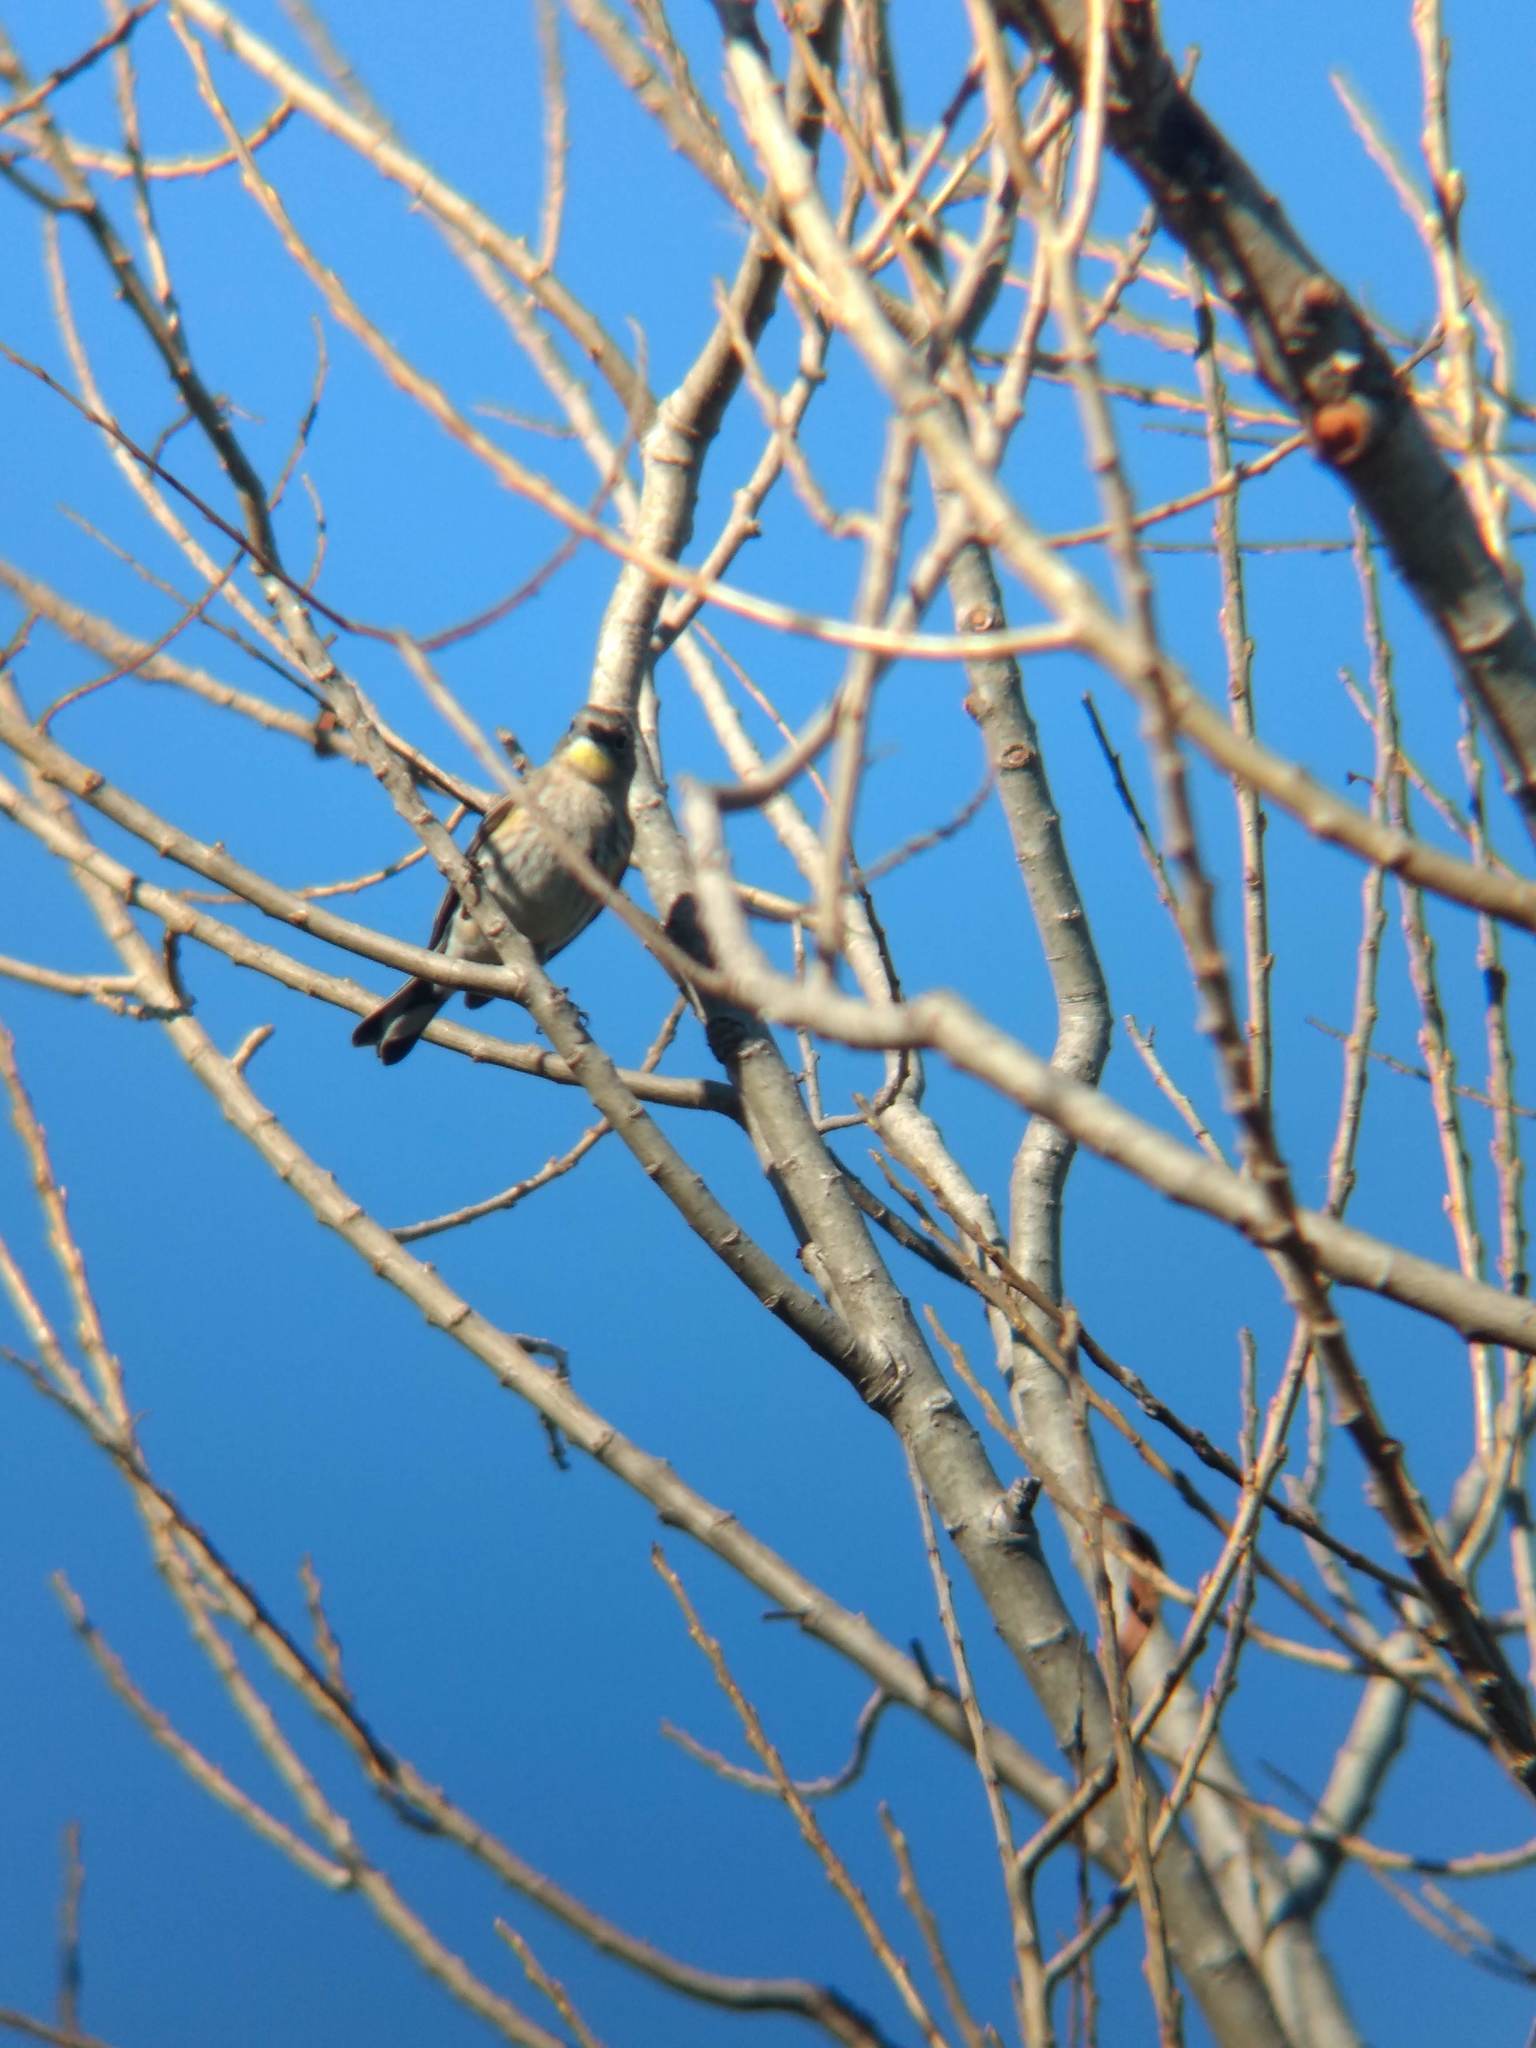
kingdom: Animalia
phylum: Chordata
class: Aves
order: Passeriformes
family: Parulidae
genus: Setophaga
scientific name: Setophaga coronata
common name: Myrtle warbler
